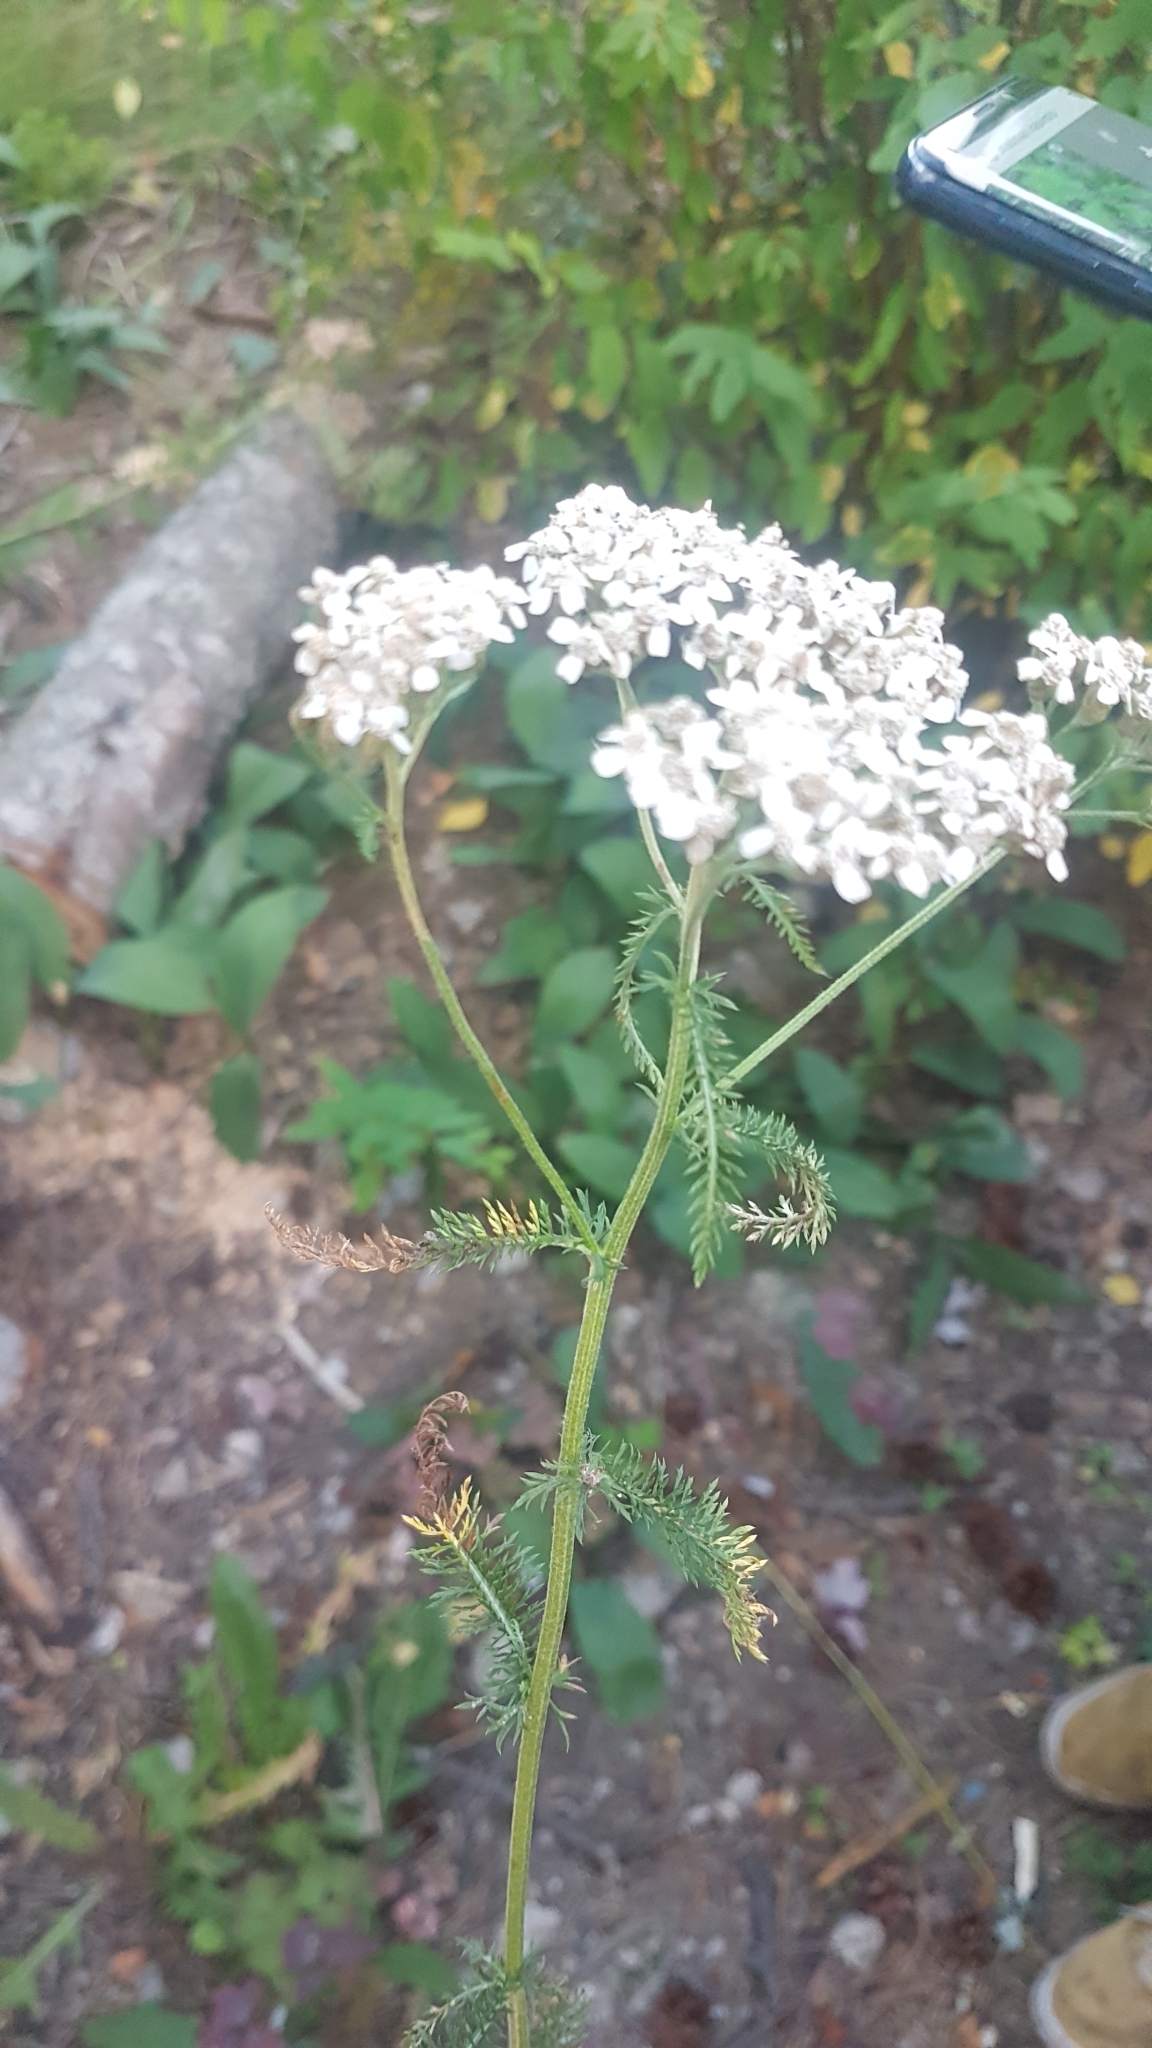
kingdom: Plantae
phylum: Tracheophyta
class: Magnoliopsida
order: Asterales
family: Asteraceae
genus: Achillea
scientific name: Achillea millefolium
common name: Yarrow
